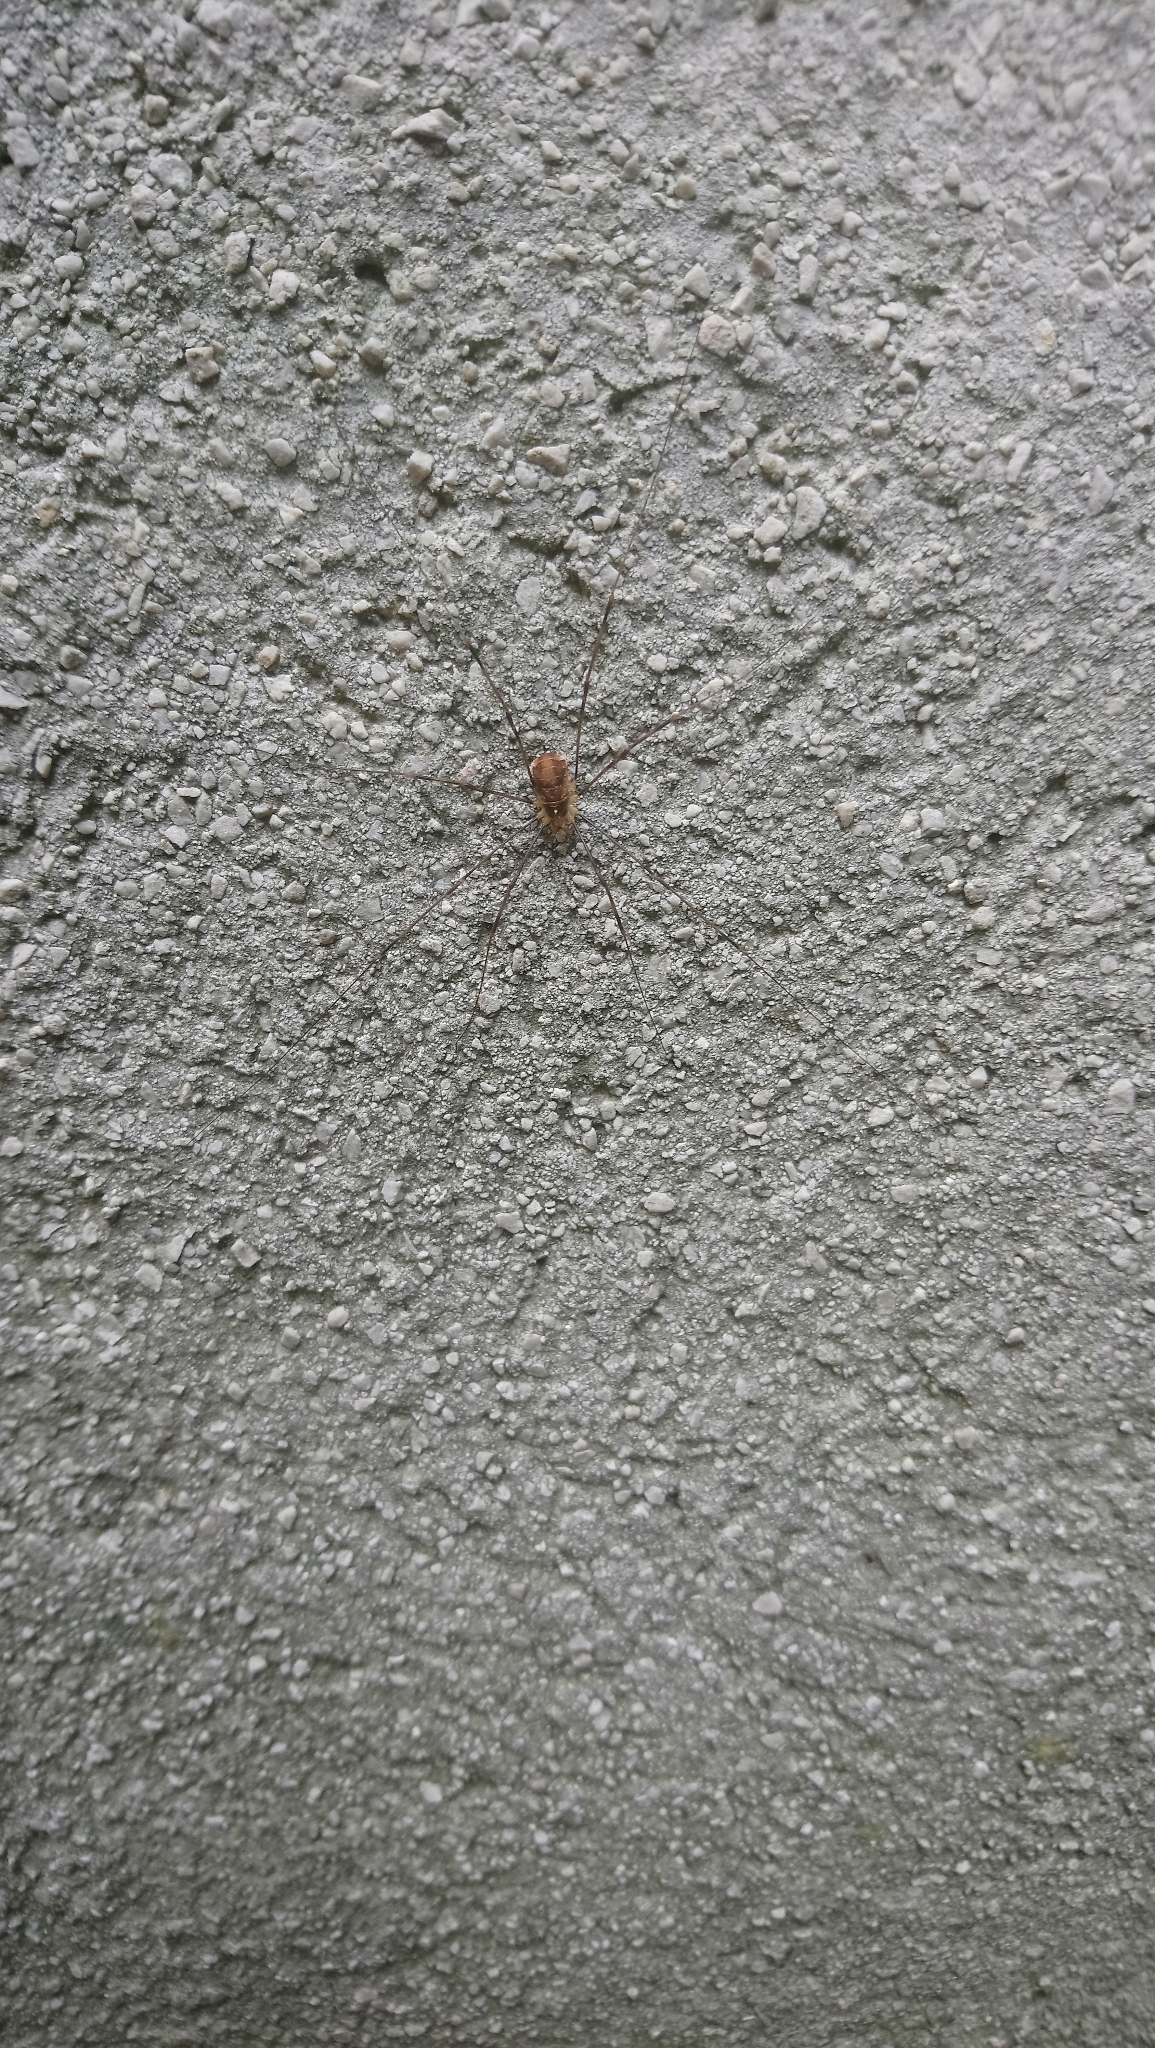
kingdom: Animalia
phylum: Arthropoda
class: Arachnida
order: Opiliones
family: Phalangiidae
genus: Opilio
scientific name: Opilio canestrinii
